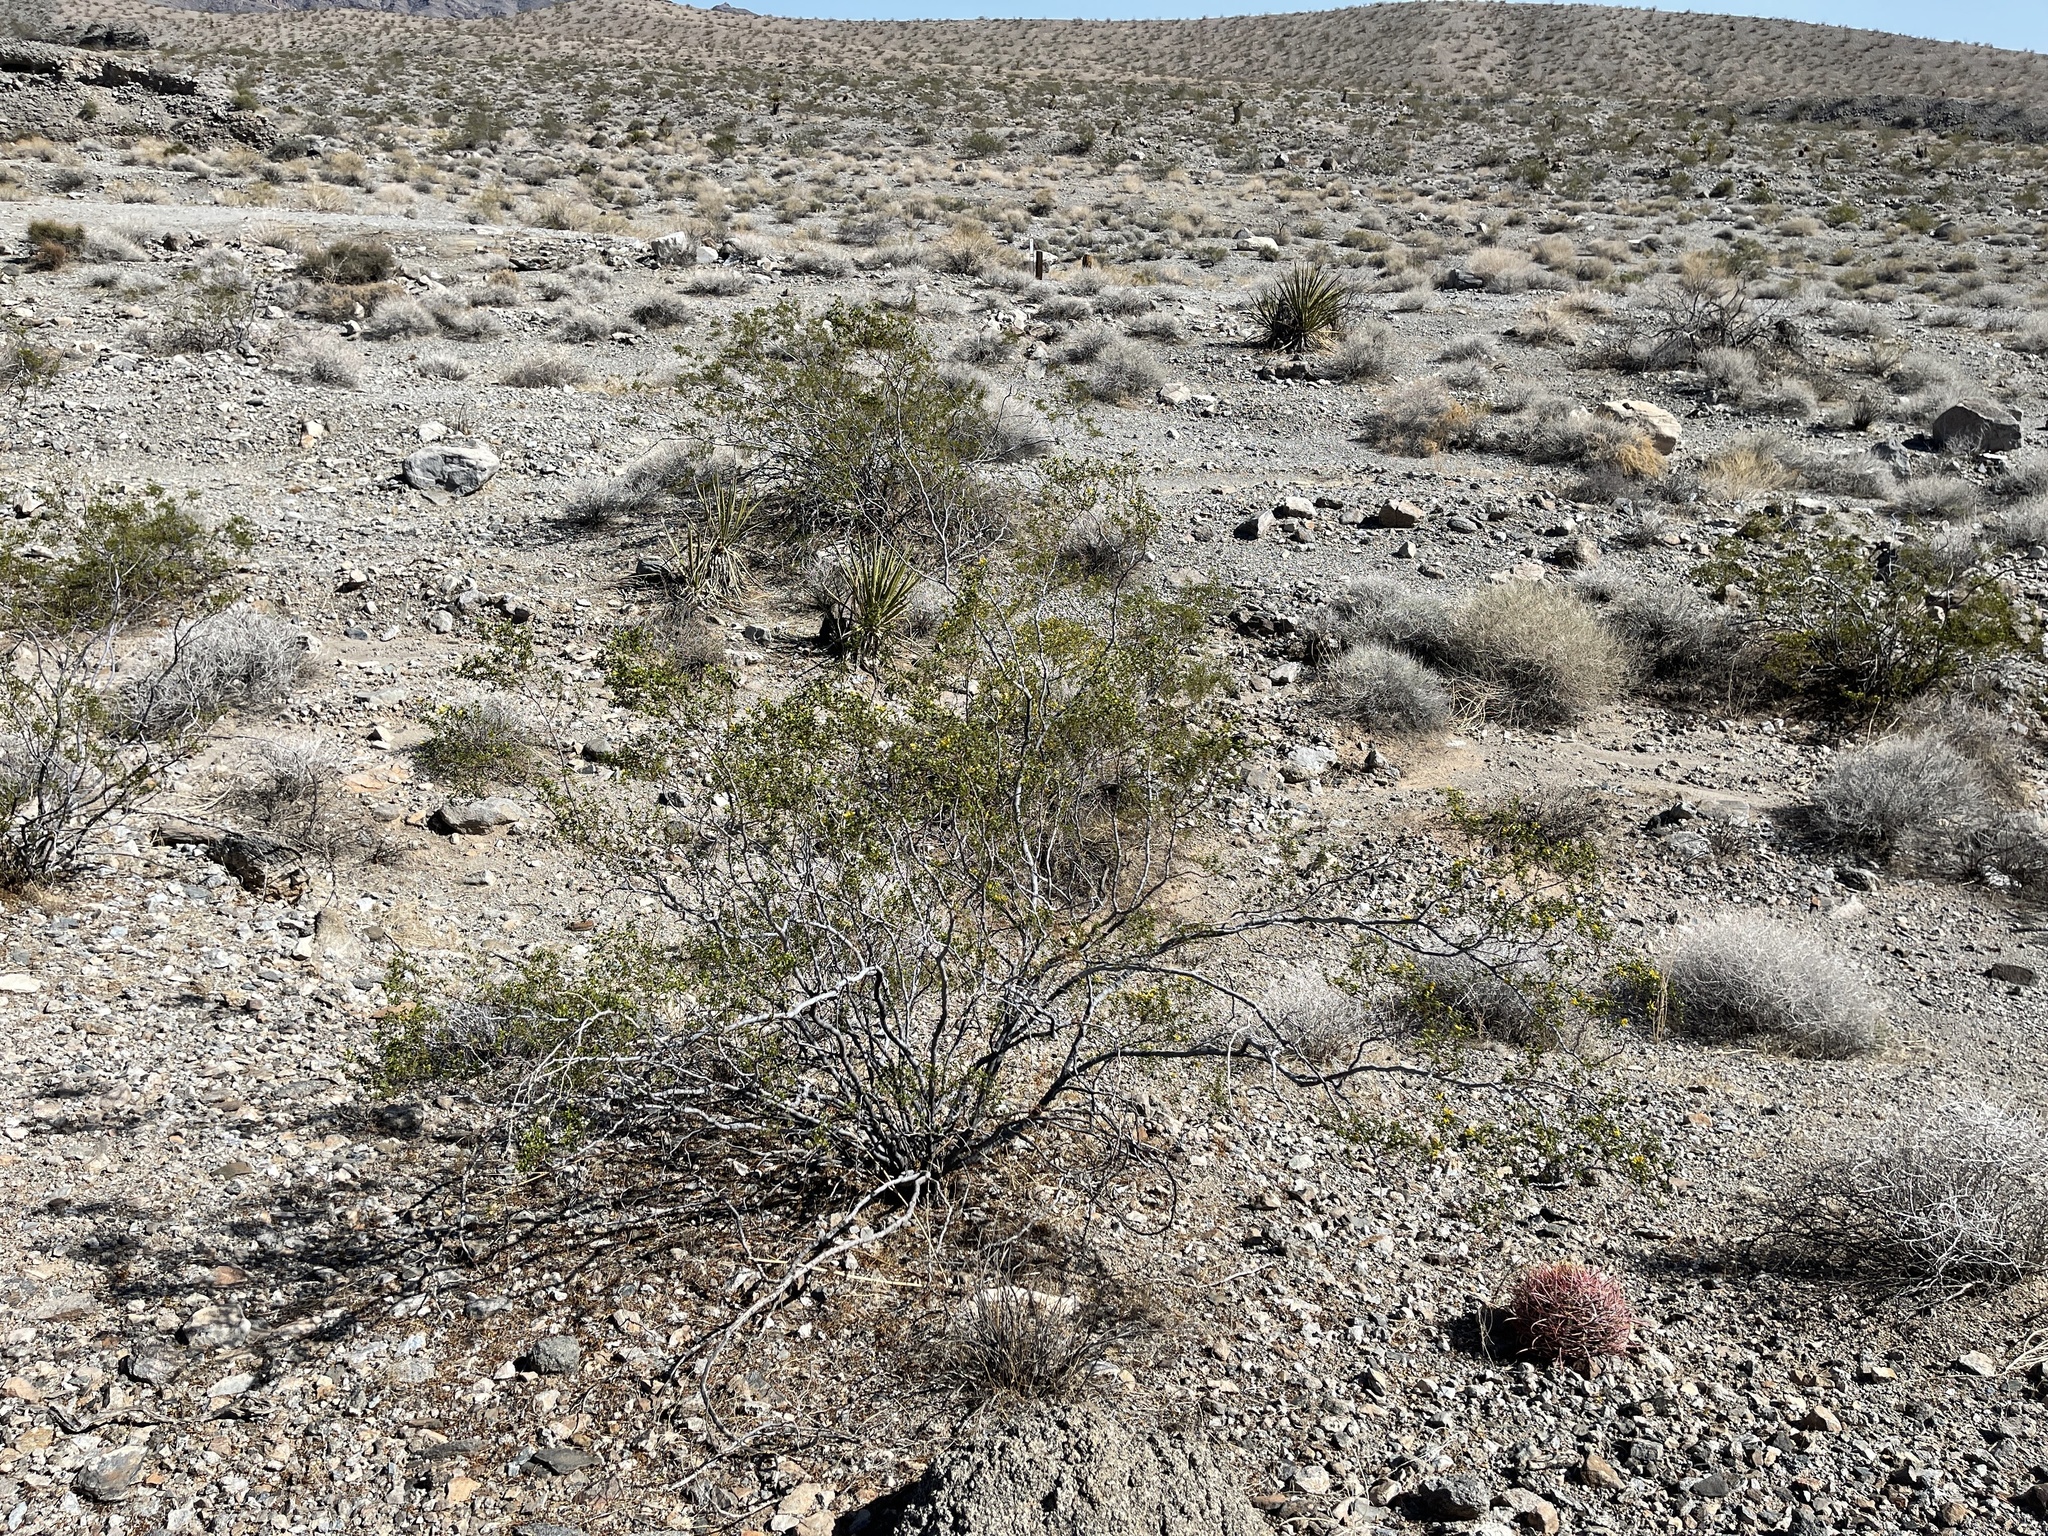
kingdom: Plantae
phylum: Tracheophyta
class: Magnoliopsida
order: Zygophyllales
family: Zygophyllaceae
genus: Larrea
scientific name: Larrea tridentata
